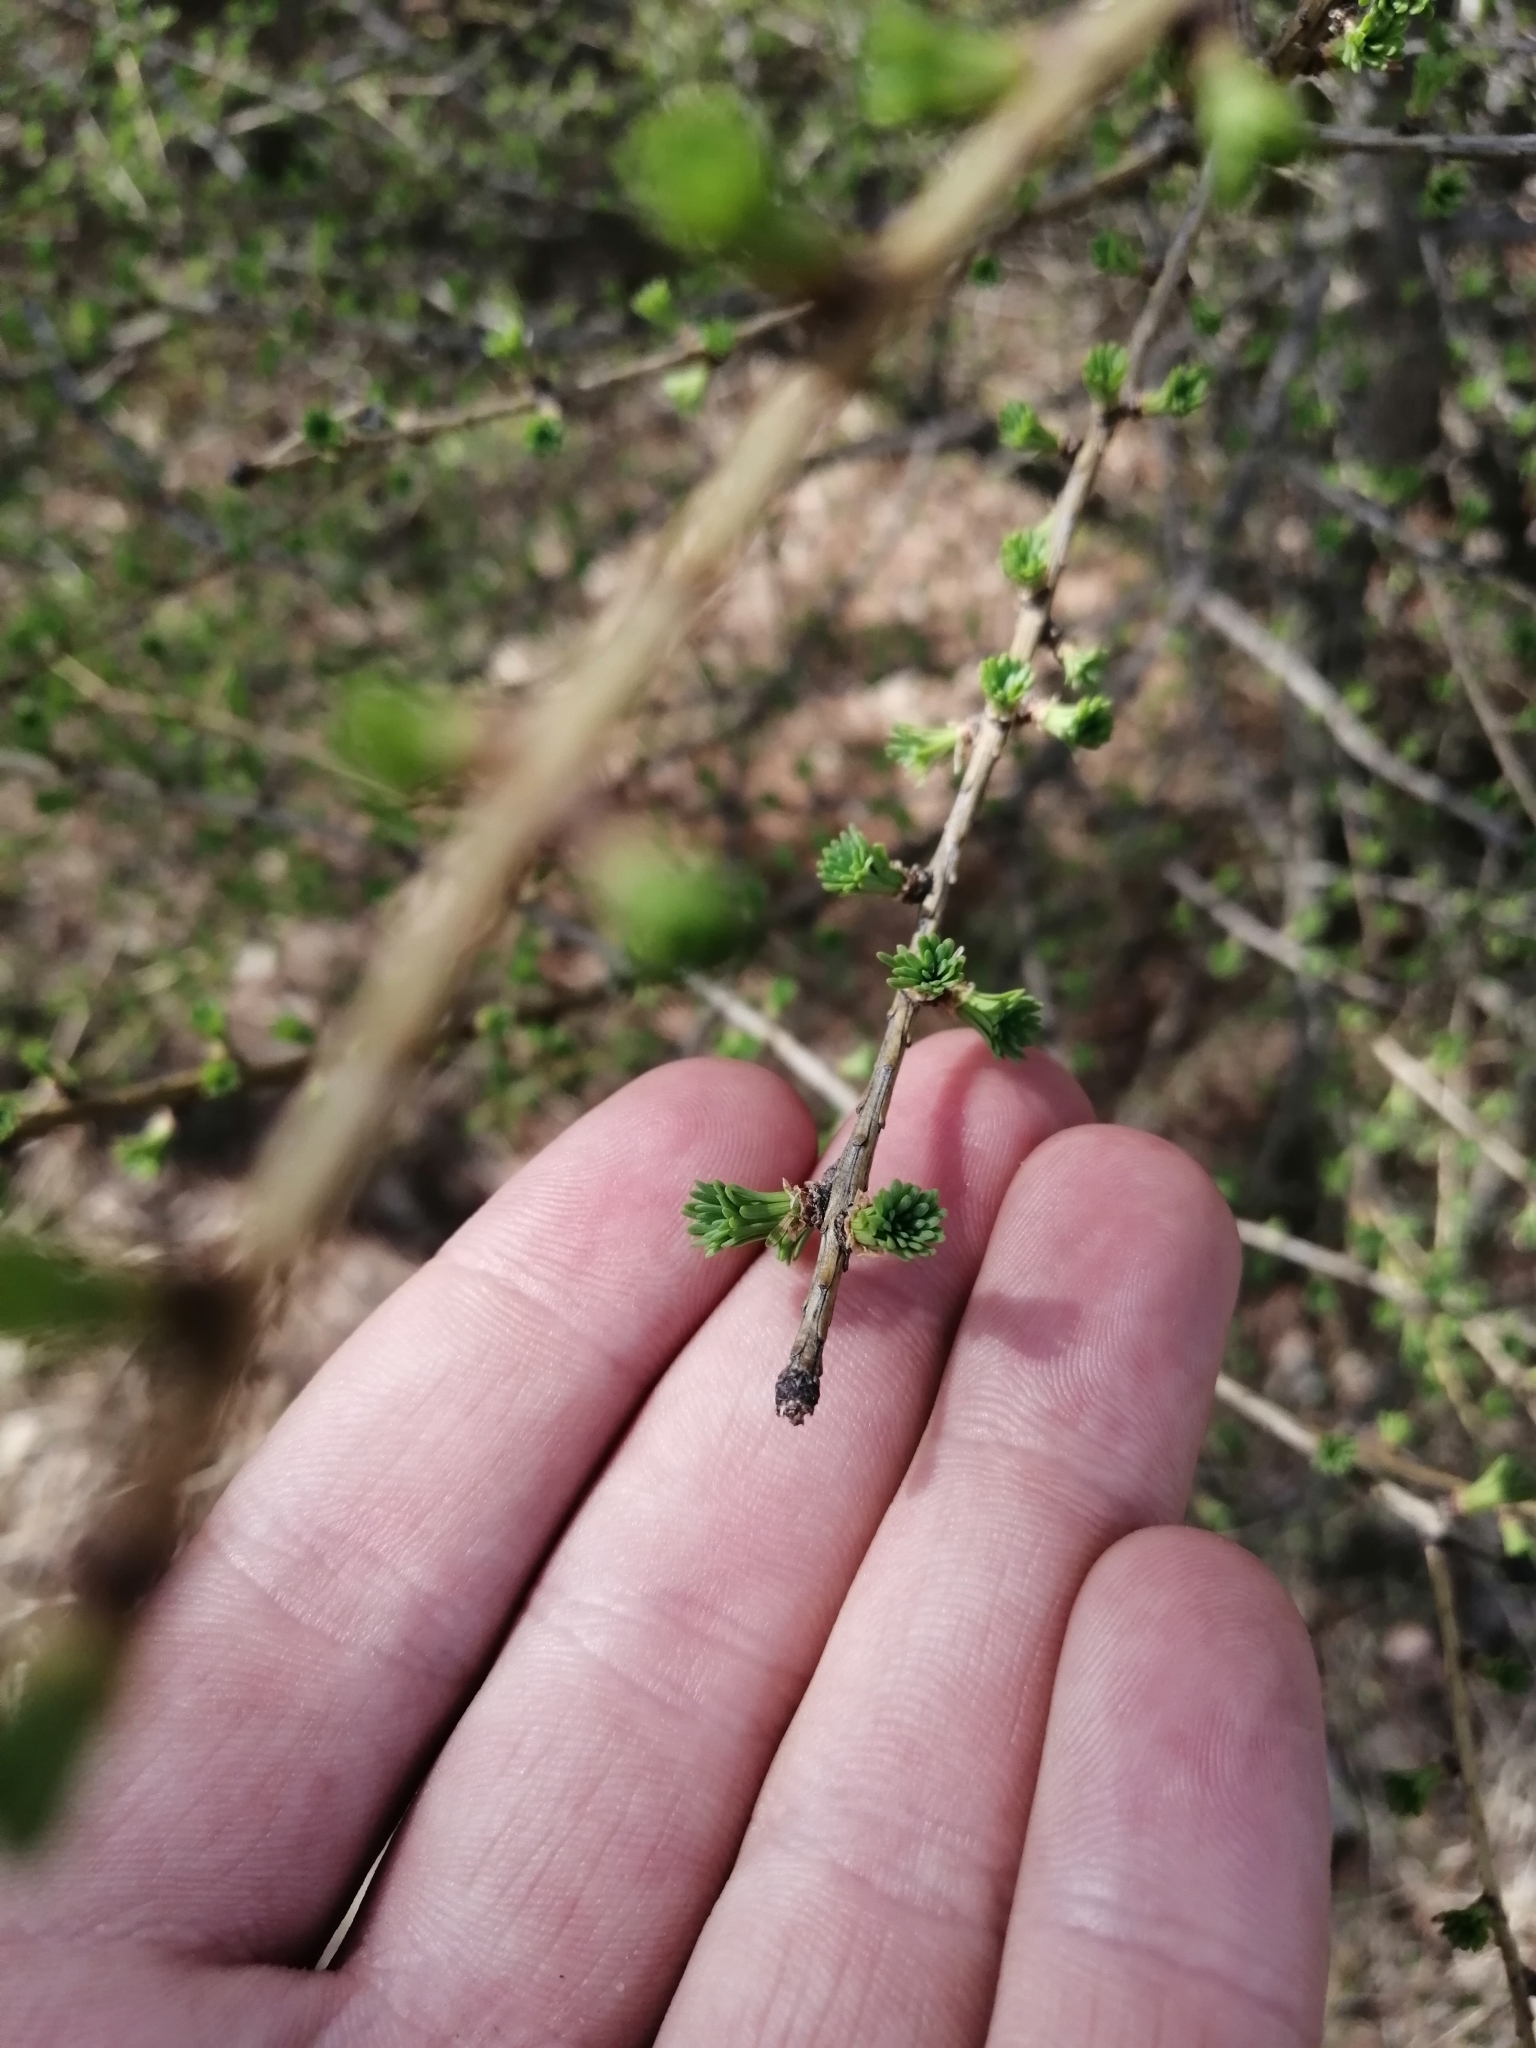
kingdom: Plantae
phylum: Tracheophyta
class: Pinopsida
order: Pinales
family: Pinaceae
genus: Larix
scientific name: Larix sibirica
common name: Siberian larch
